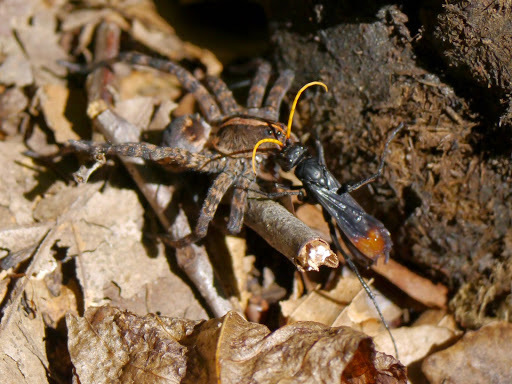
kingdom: Animalia
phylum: Arthropoda
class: Insecta
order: Hymenoptera
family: Pompilidae
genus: Entypus
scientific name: Entypus unifasciatus
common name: Eastern tawny-horned spider wasp
